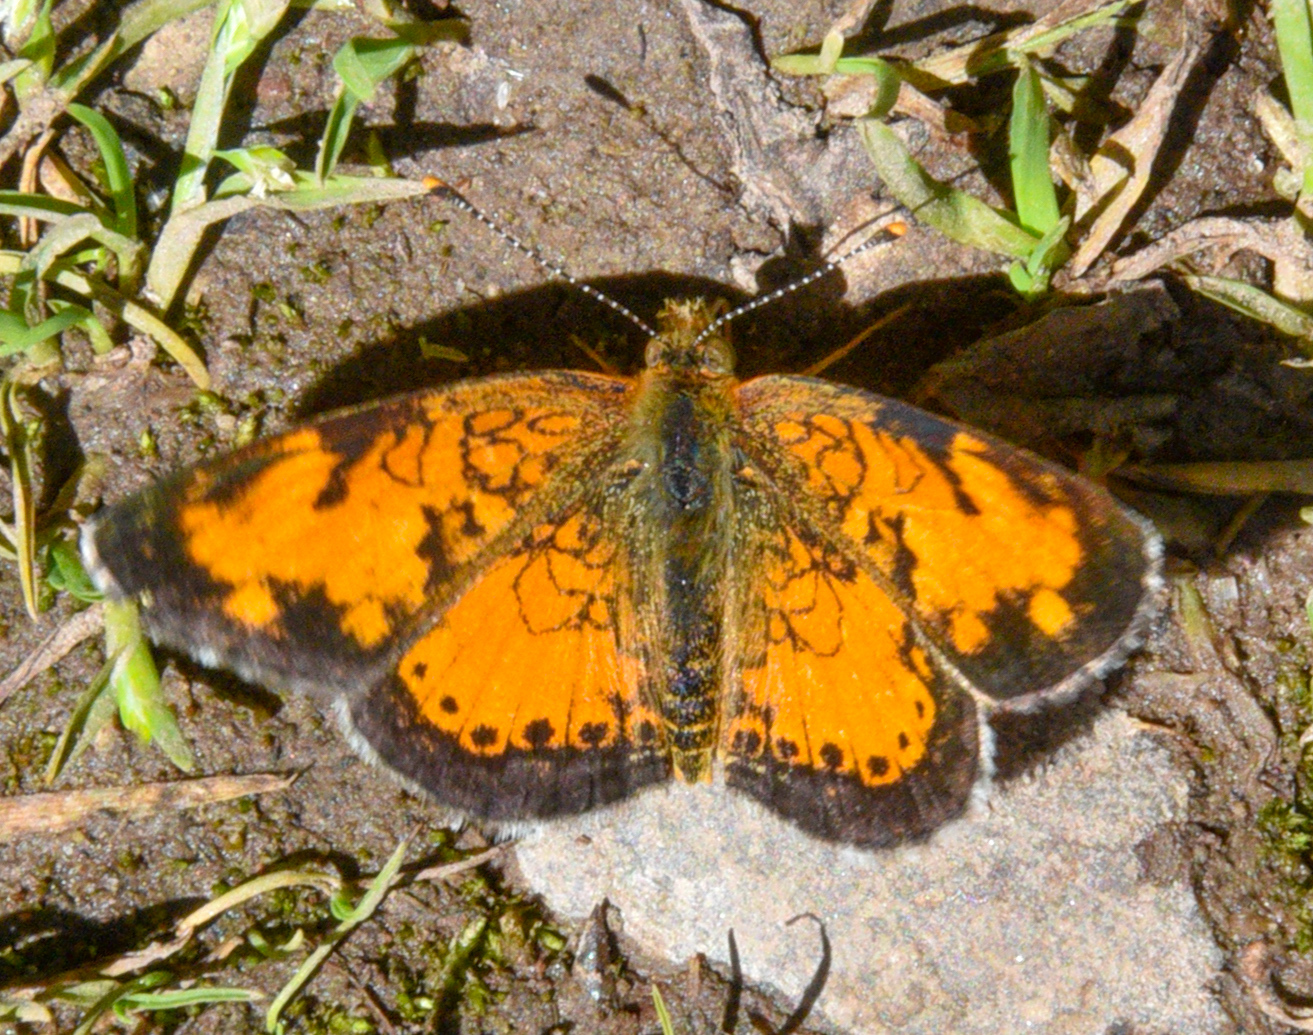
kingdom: Animalia
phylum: Arthropoda
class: Insecta
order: Lepidoptera
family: Nymphalidae
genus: Phyciodes
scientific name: Phyciodes tharos
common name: Pearl crescent
